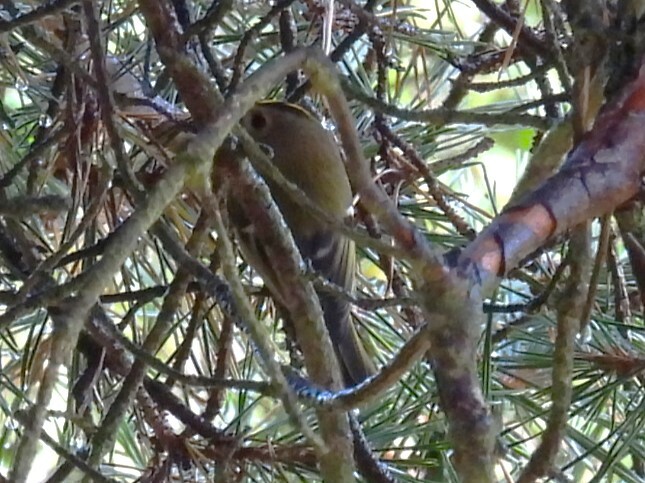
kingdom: Animalia
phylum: Chordata
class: Aves
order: Passeriformes
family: Regulidae
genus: Regulus
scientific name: Regulus regulus
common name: Goldcrest
